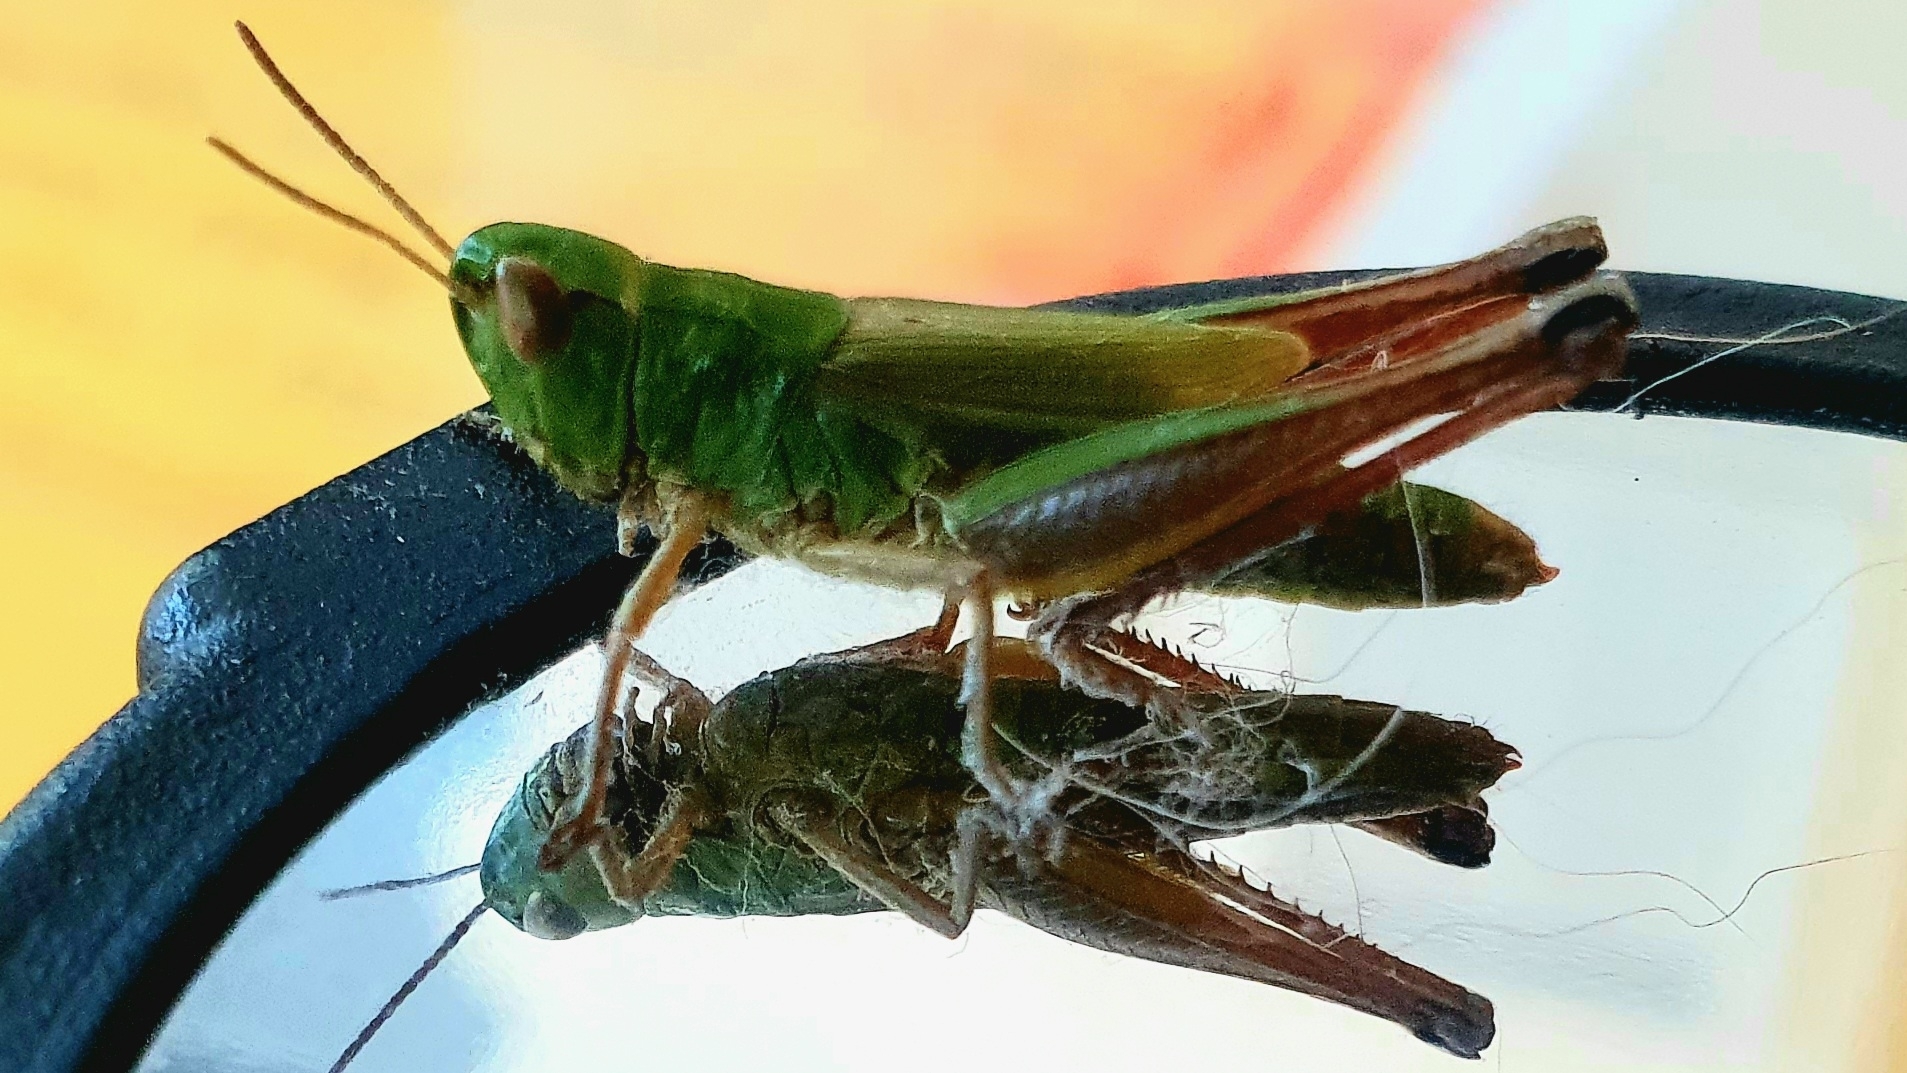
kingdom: Animalia
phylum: Arthropoda
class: Insecta
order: Orthoptera
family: Acrididae
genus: Pseudochorthippus
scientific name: Pseudochorthippus parallelus
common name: Meadow grasshopper
